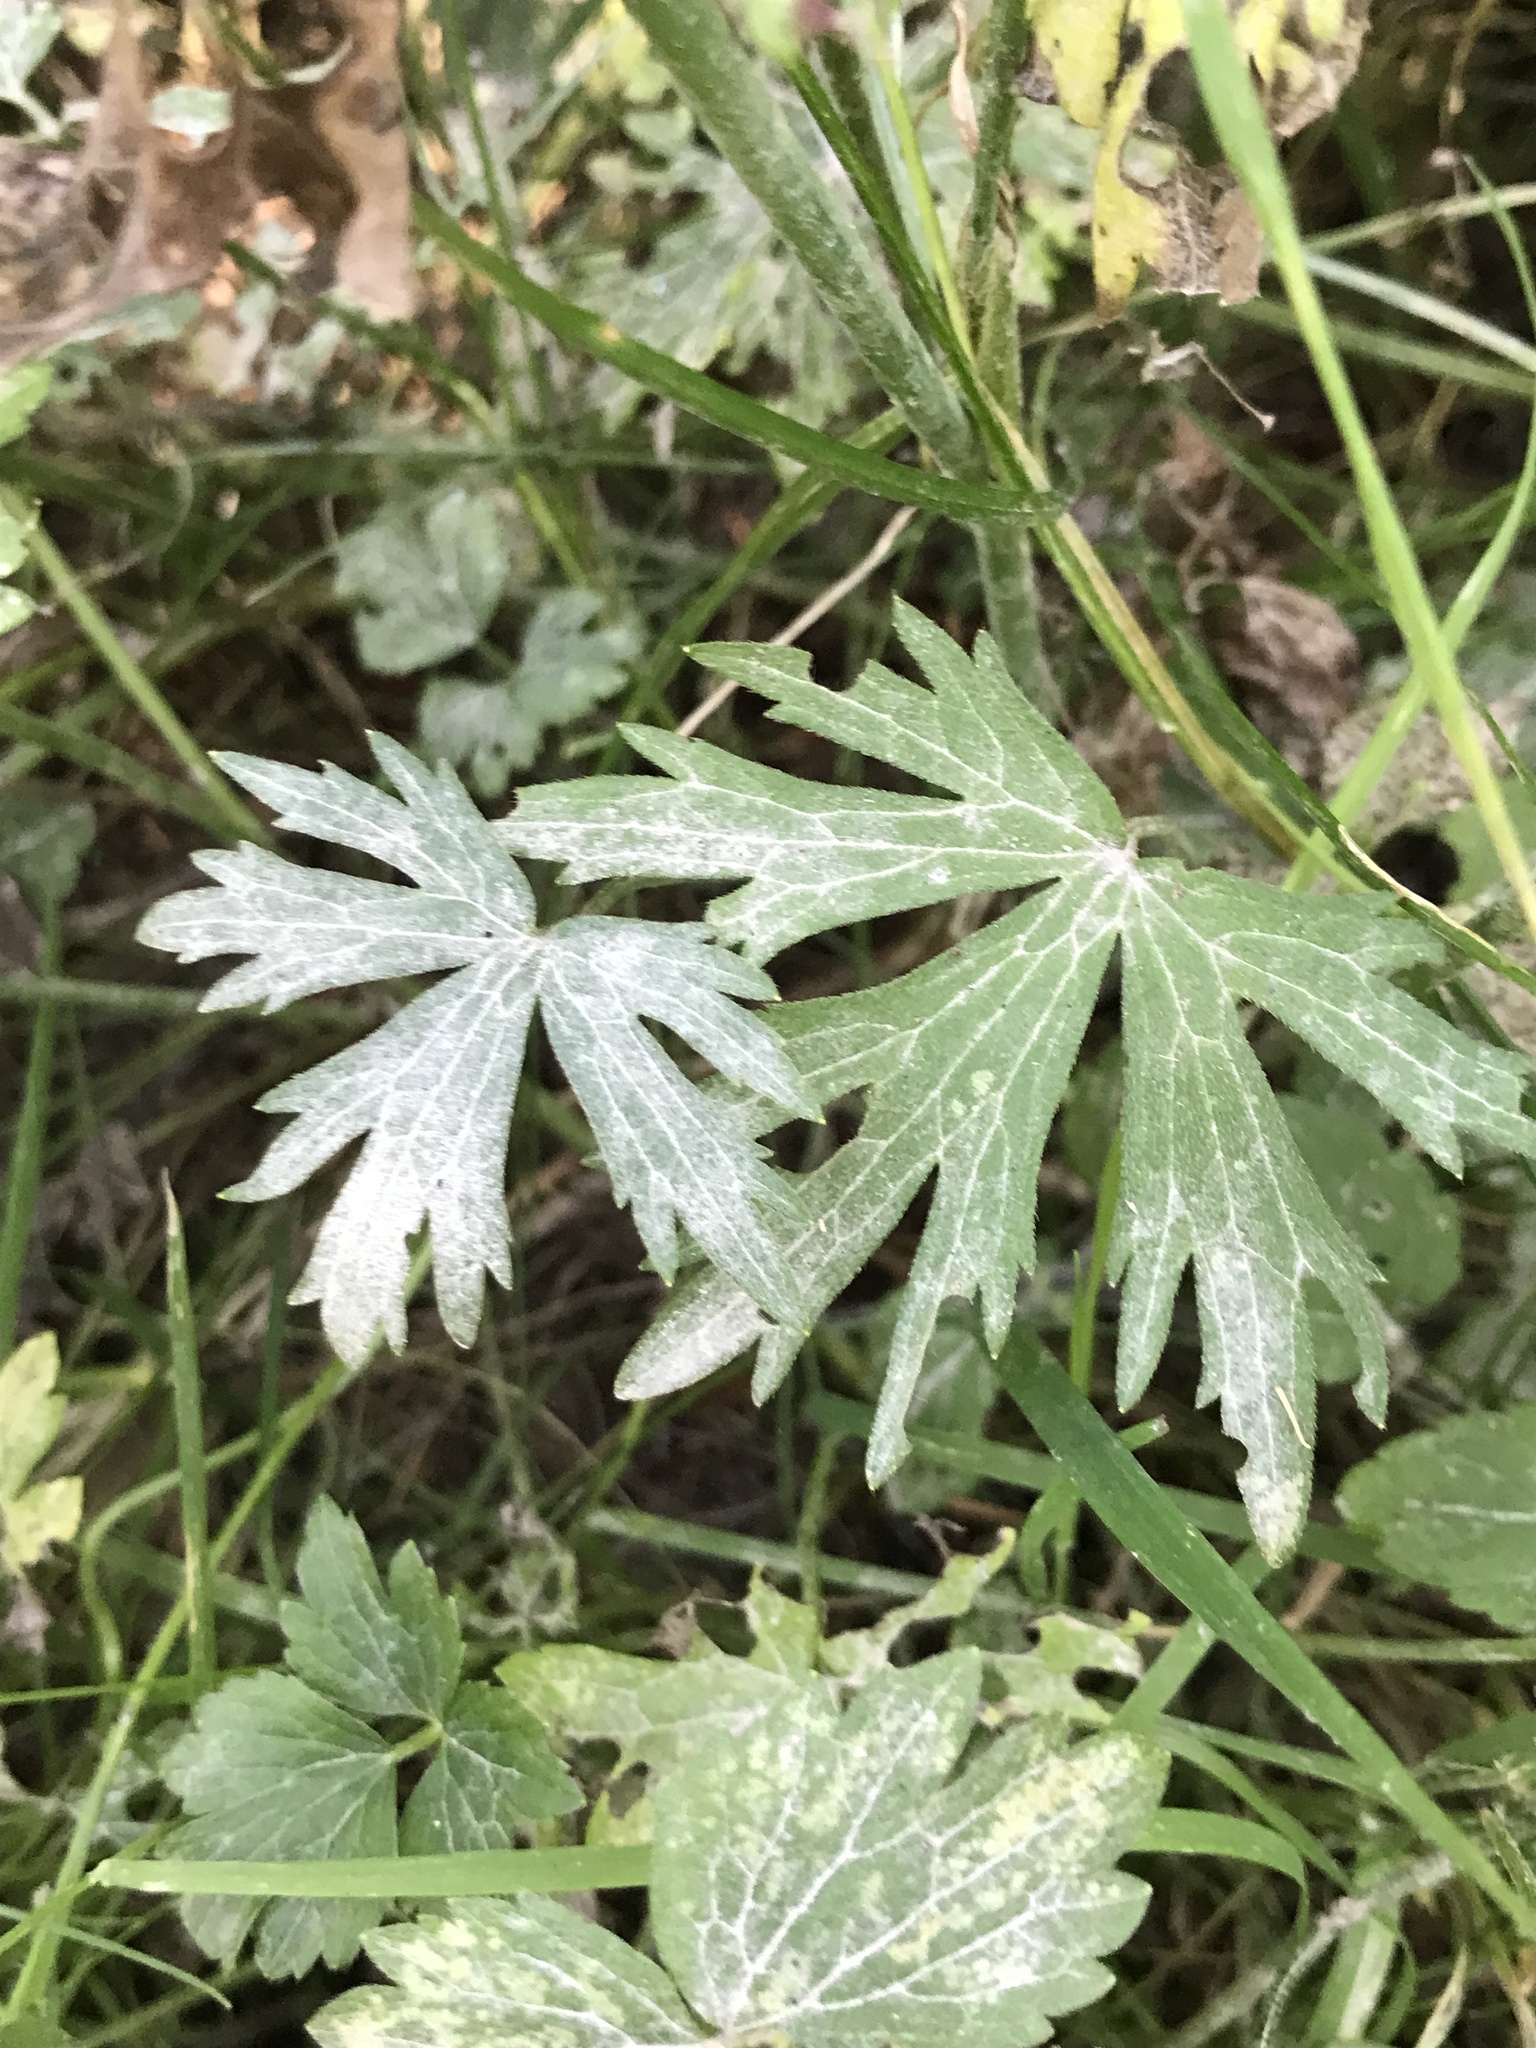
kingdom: Plantae
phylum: Tracheophyta
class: Magnoliopsida
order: Ranunculales
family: Ranunculaceae
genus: Ranunculus
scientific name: Ranunculus acris
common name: Meadow buttercup
